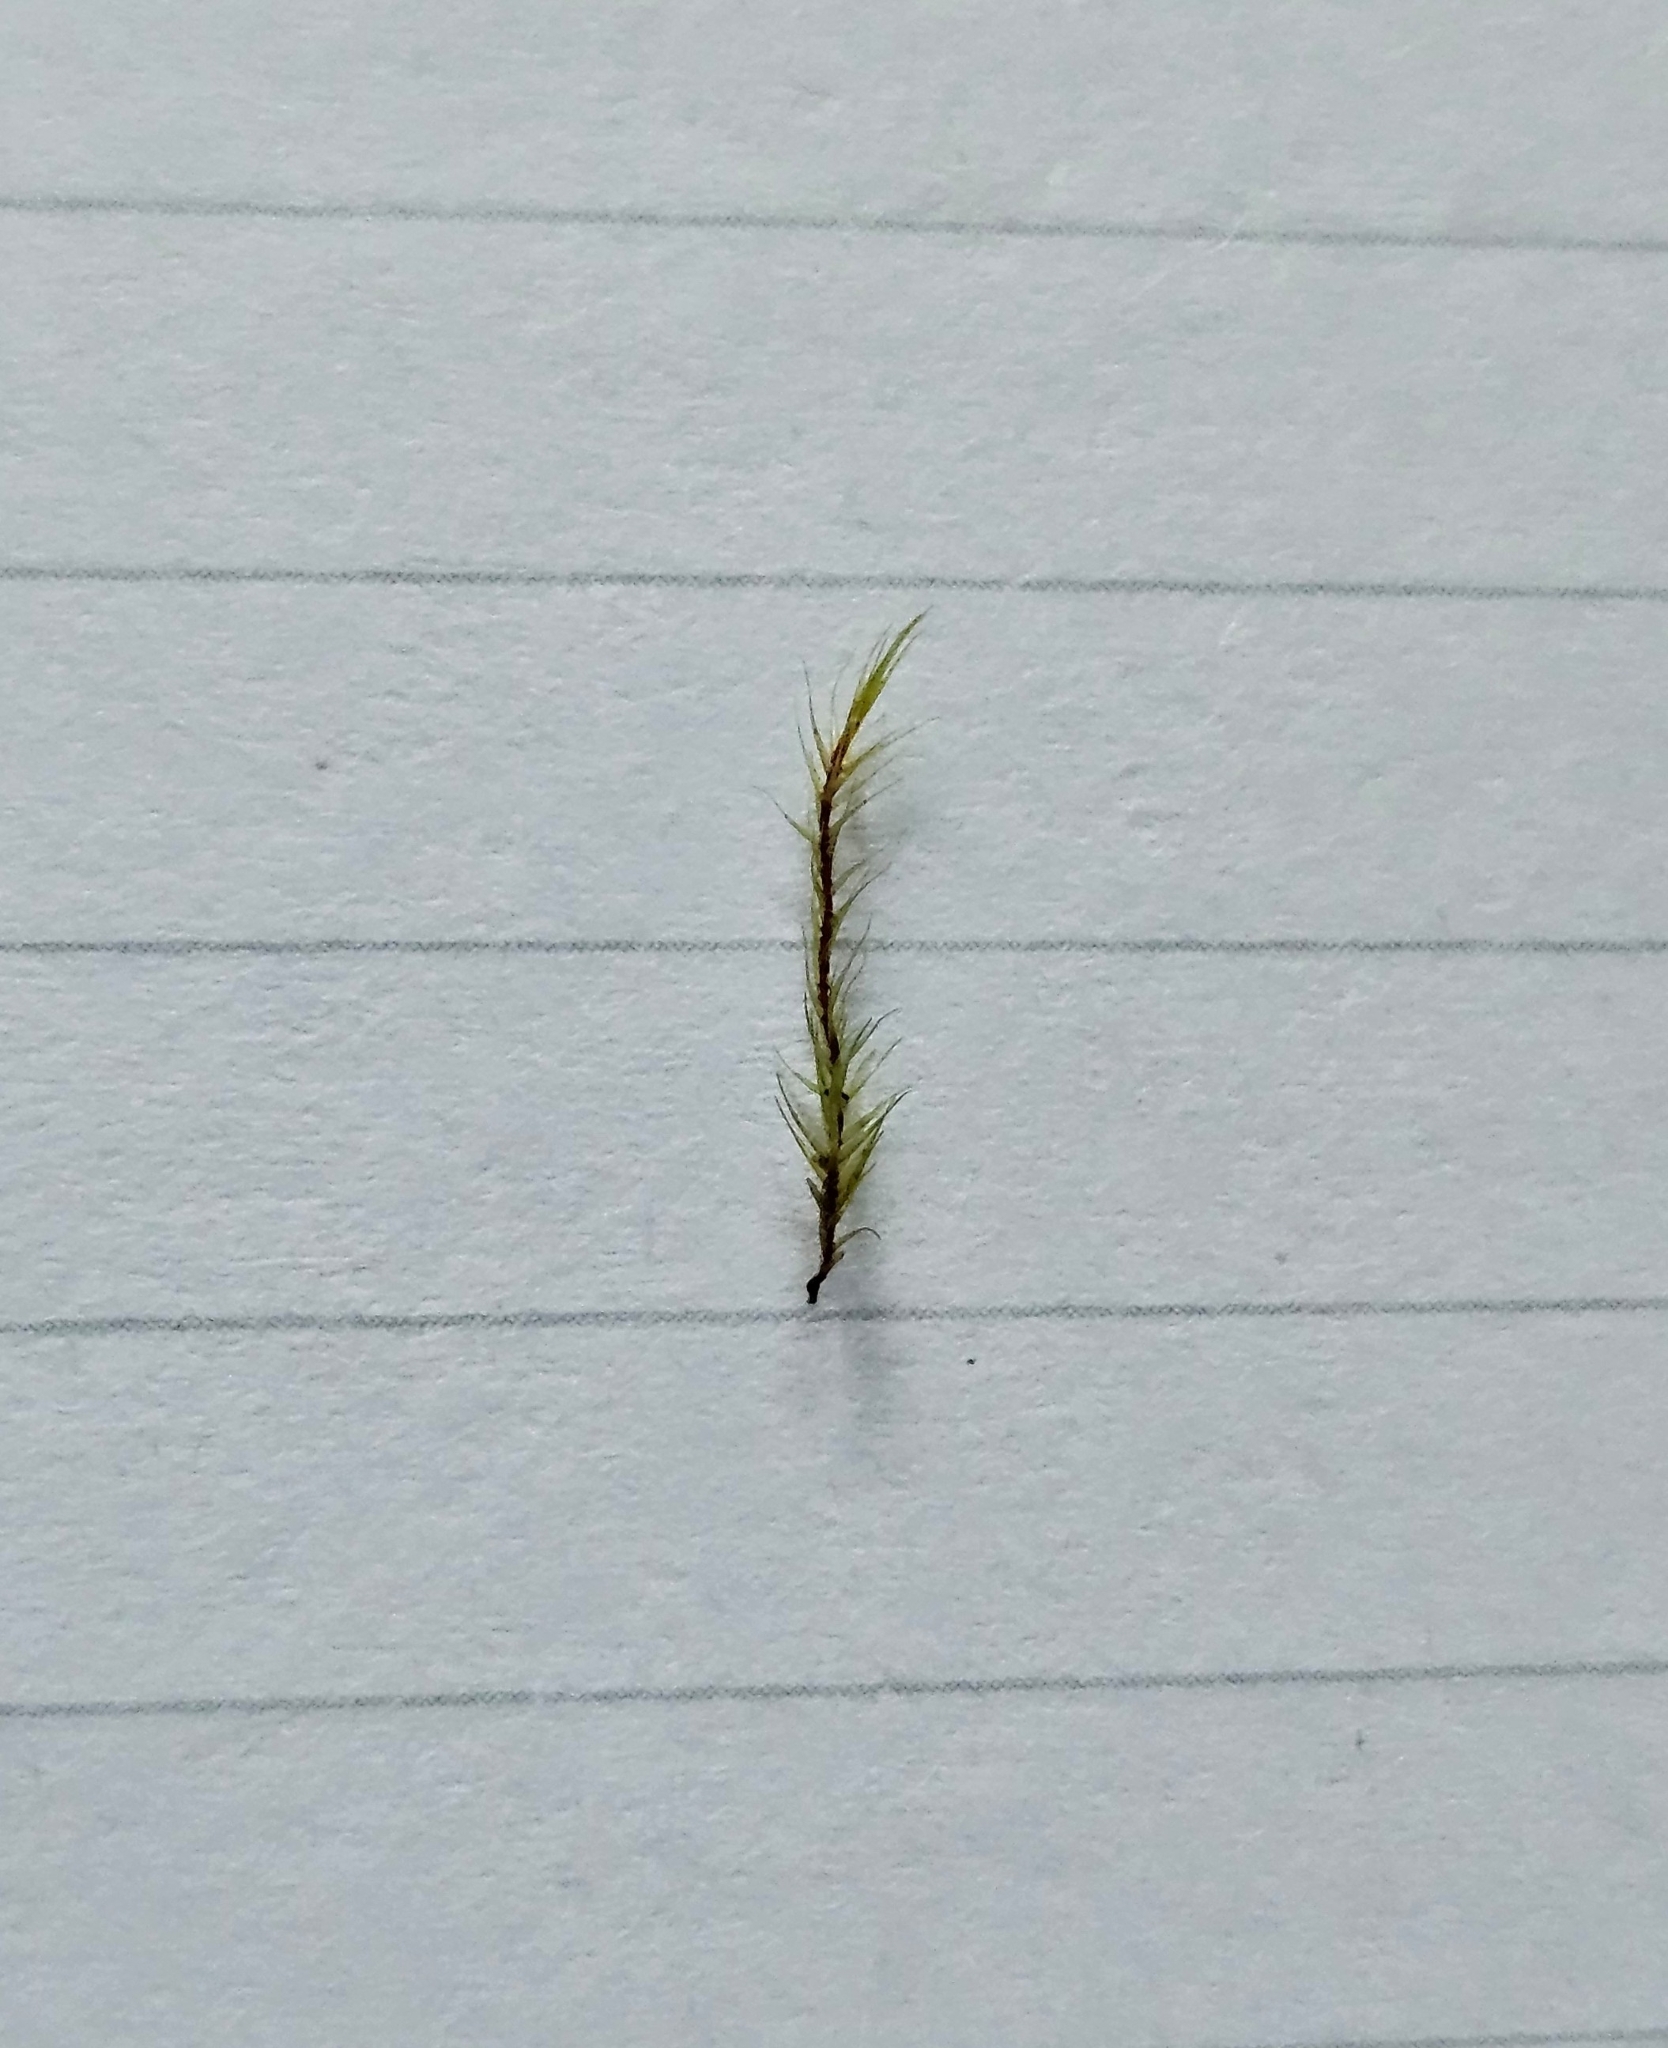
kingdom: Plantae
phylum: Bryophyta
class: Bryopsida
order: Grimmiales
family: Seligeriaceae
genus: Blindia
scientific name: Blindia acuta
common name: Sharp-leaved blind's moss
